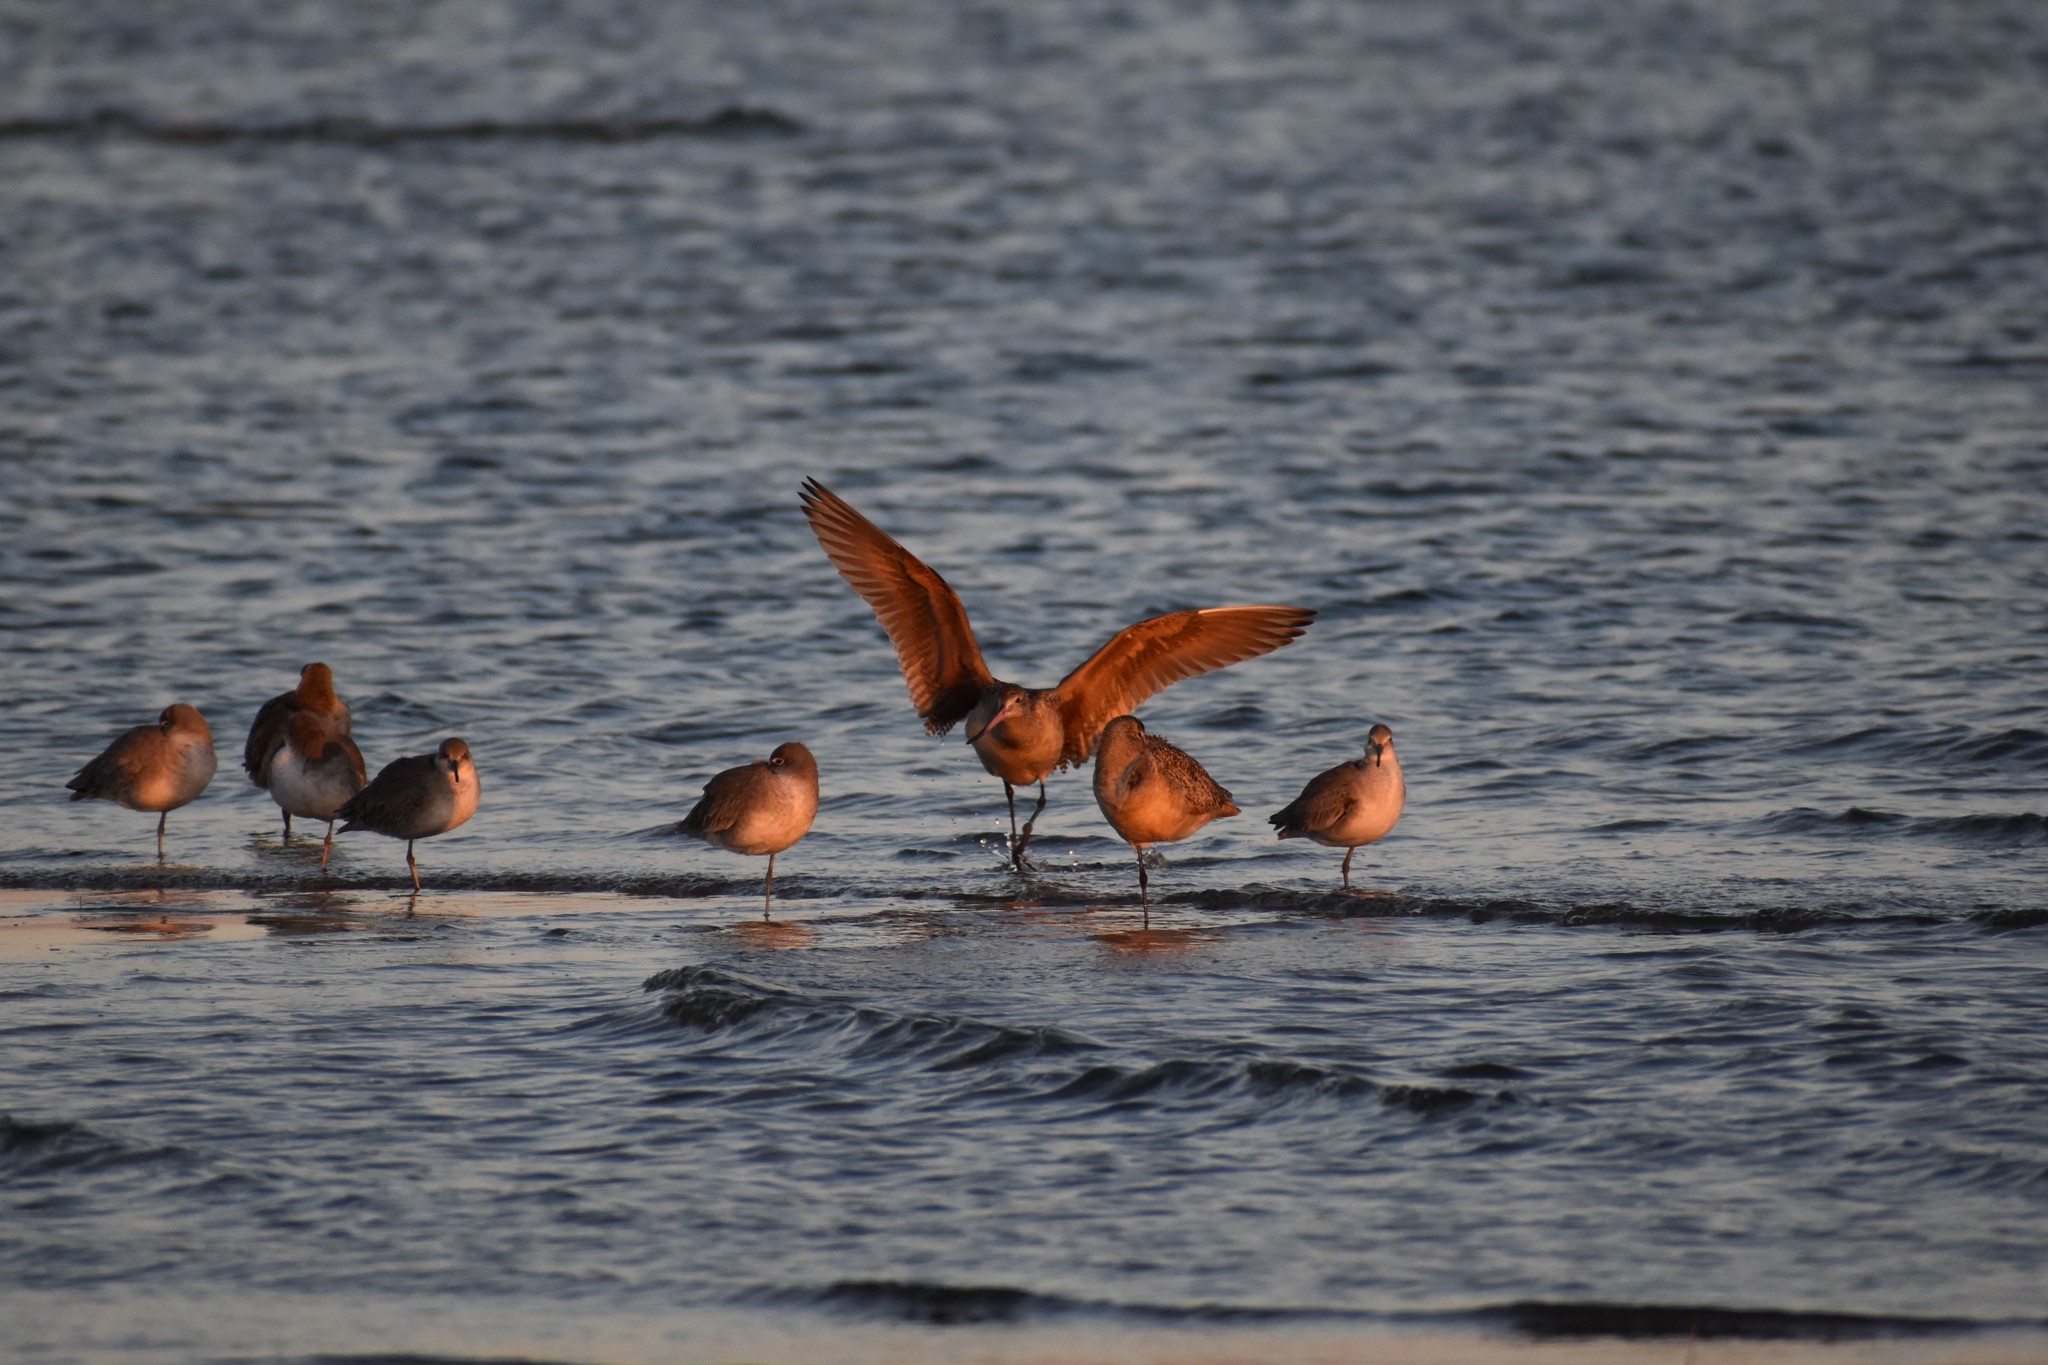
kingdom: Animalia
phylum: Chordata
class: Aves
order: Charadriiformes
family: Scolopacidae
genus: Limosa
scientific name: Limosa fedoa
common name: Marbled godwit
